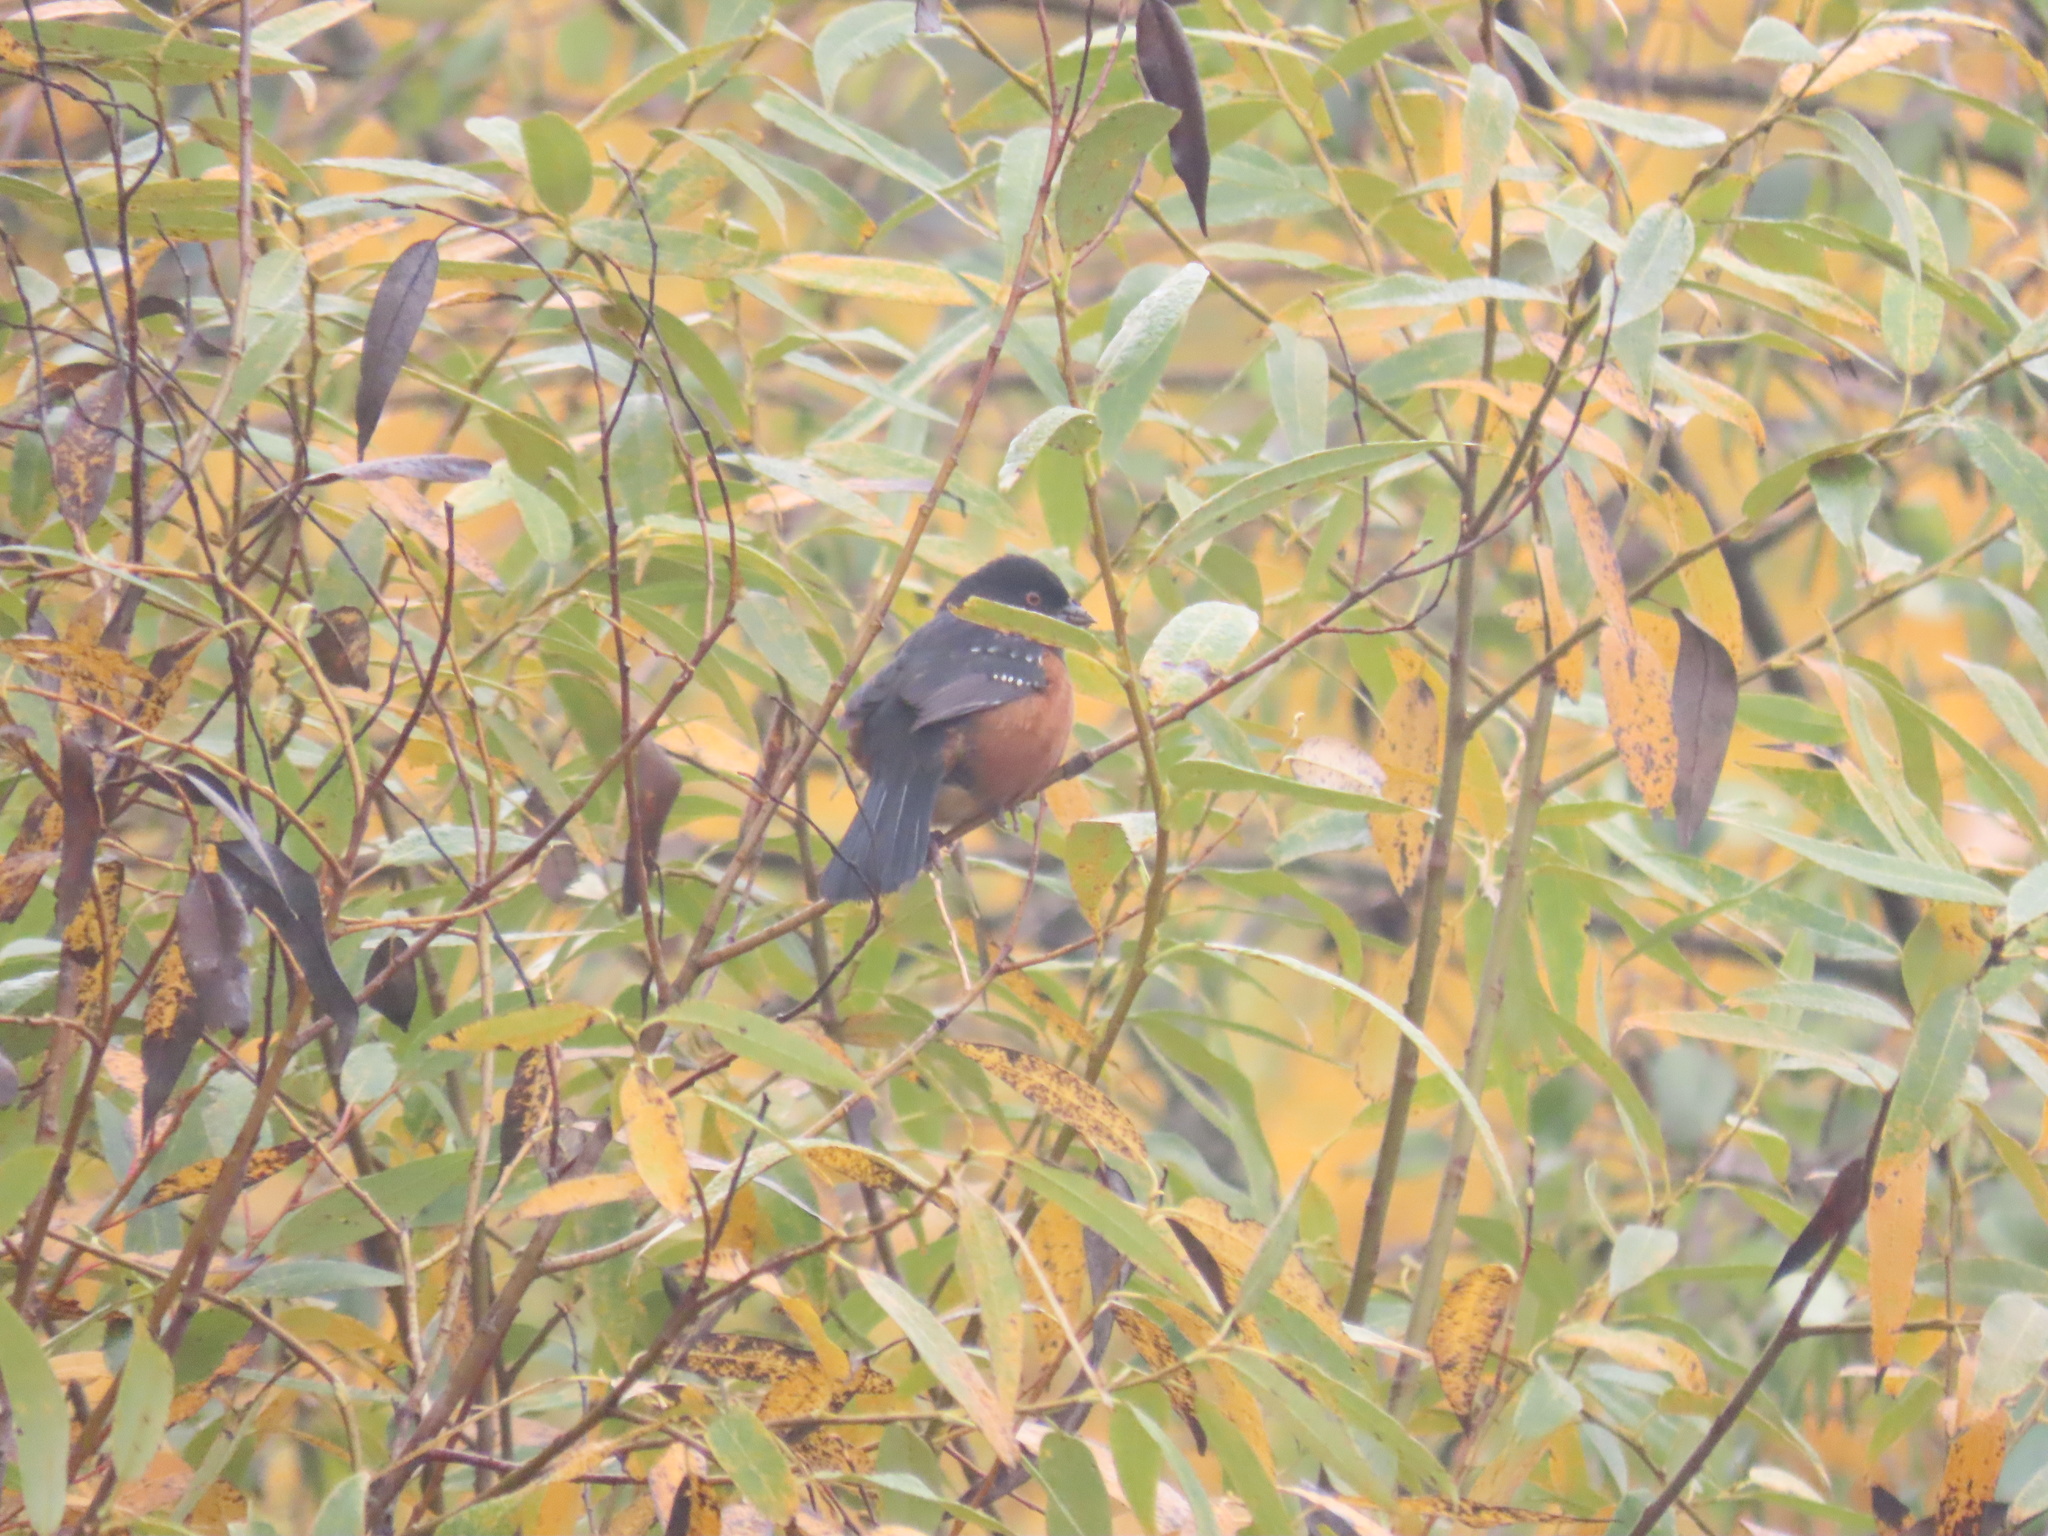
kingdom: Animalia
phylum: Chordata
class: Aves
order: Passeriformes
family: Passerellidae
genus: Pipilo
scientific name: Pipilo maculatus
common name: Spotted towhee
